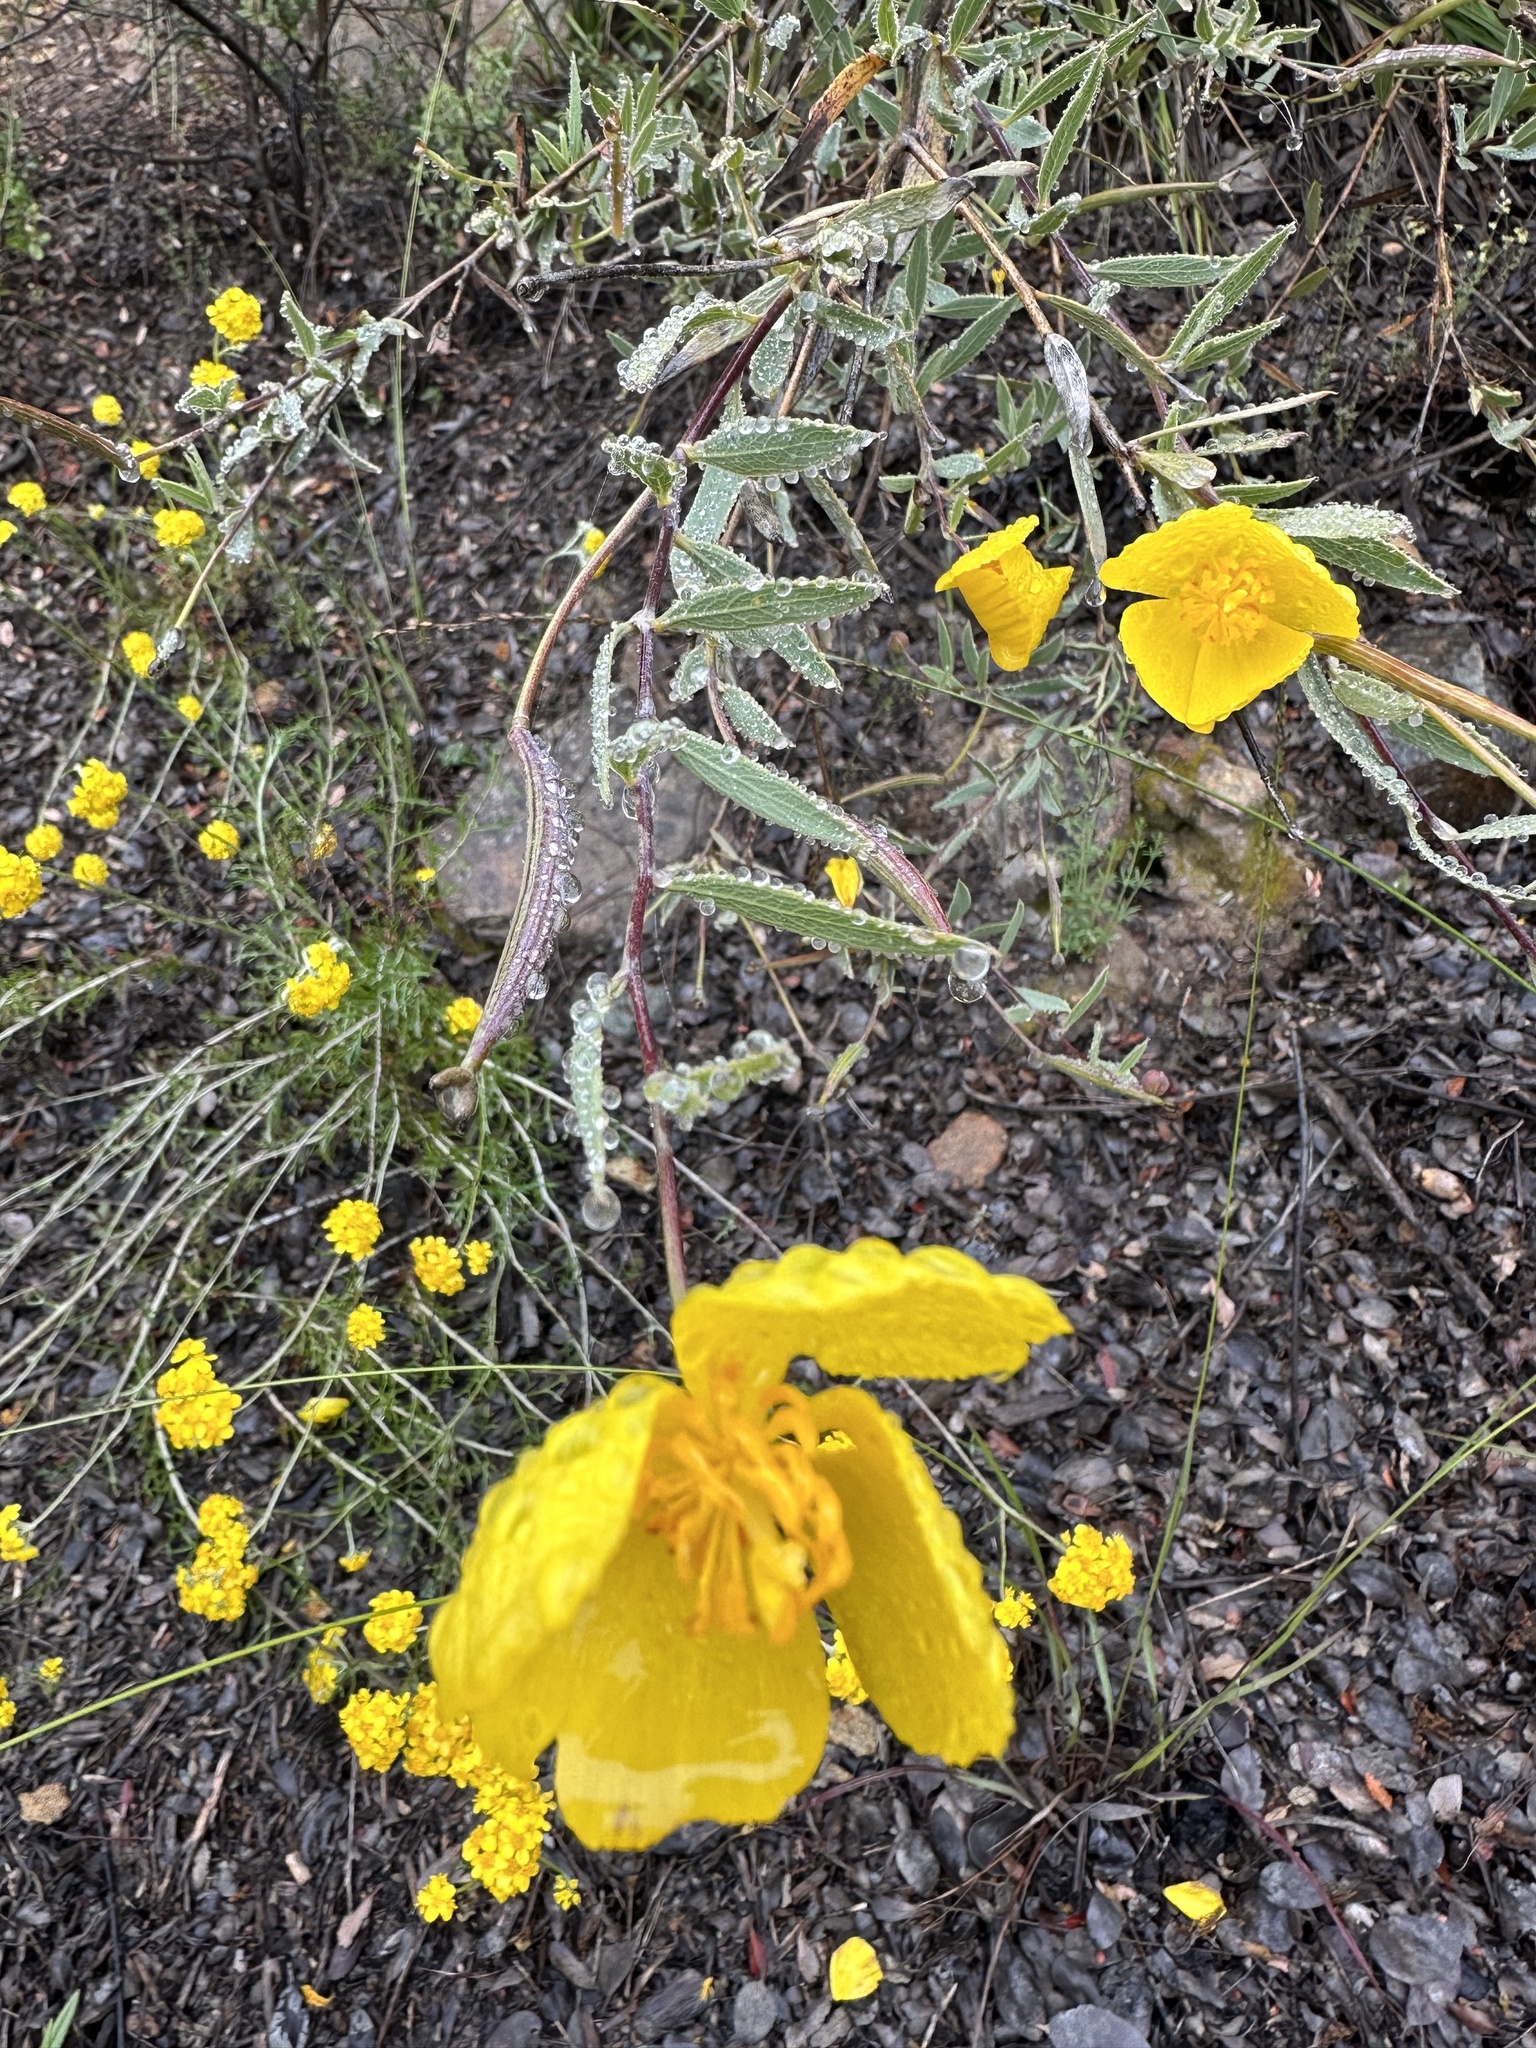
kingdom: Plantae
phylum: Tracheophyta
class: Magnoliopsida
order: Ranunculales
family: Papaveraceae
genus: Dendromecon
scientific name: Dendromecon rigida
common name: Tree poppy
